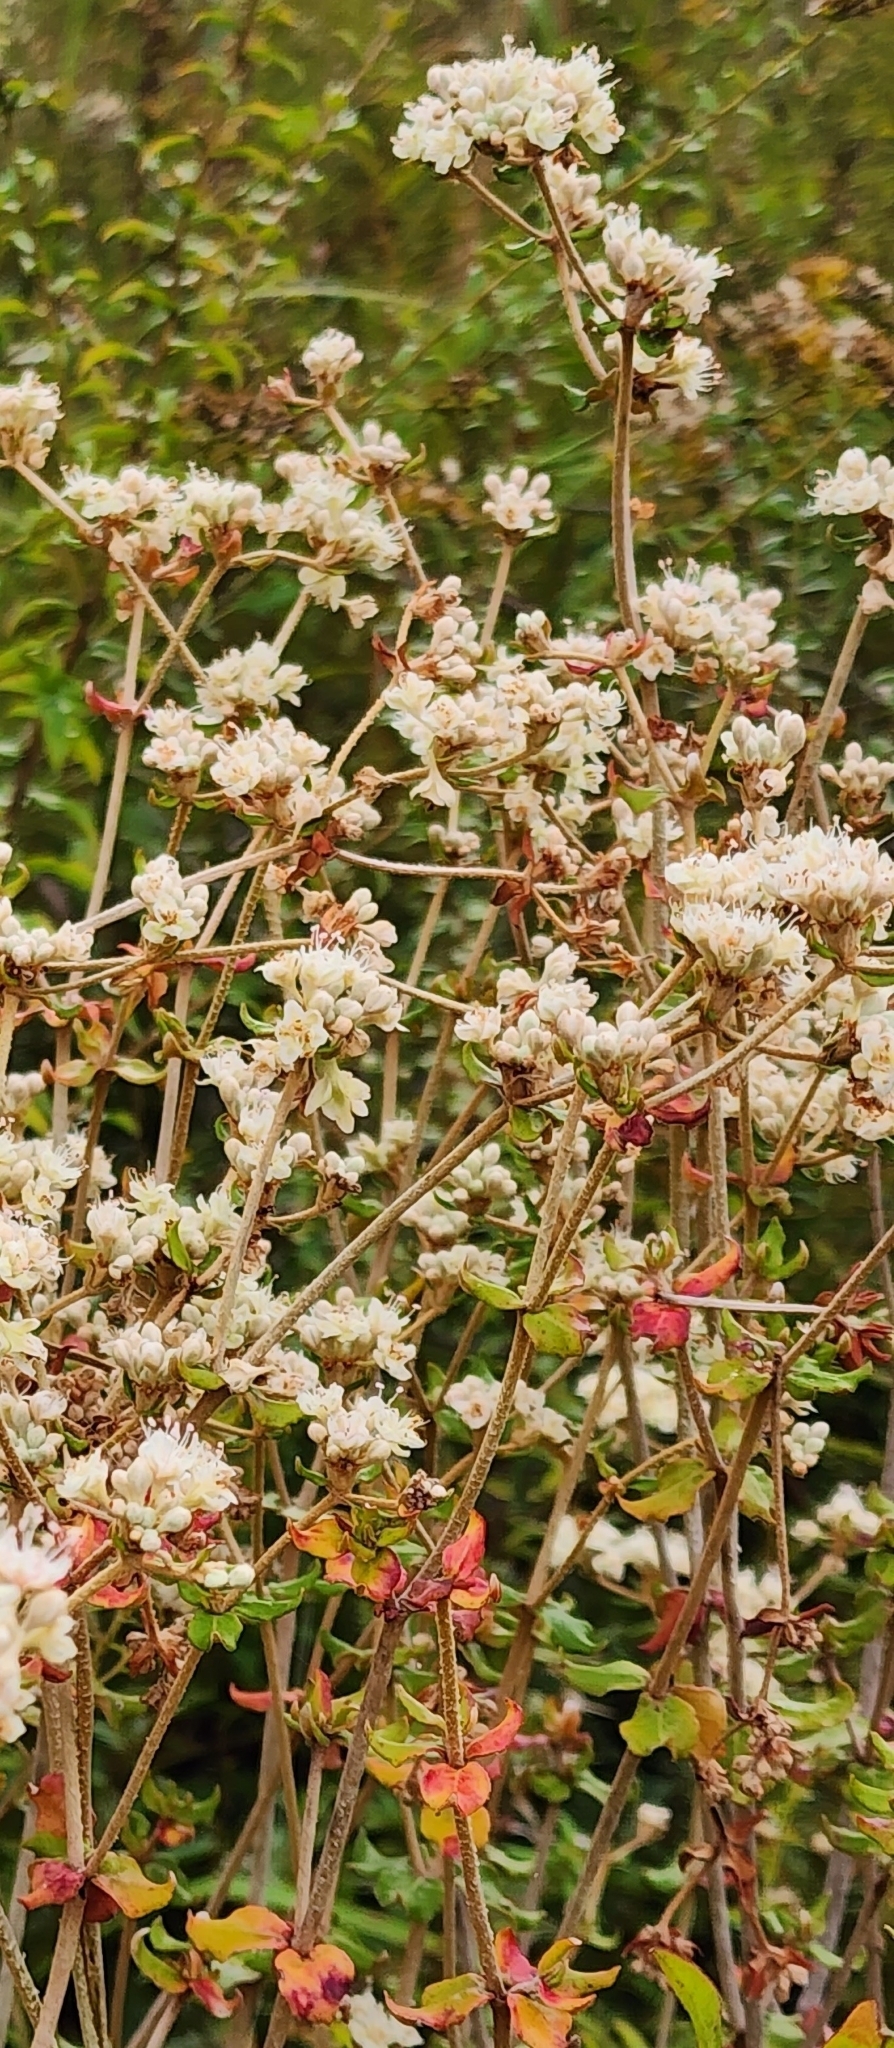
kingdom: Plantae
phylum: Tracheophyta
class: Magnoliopsida
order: Caryophyllales
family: Polygonaceae
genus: Eriogonum
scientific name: Eriogonum tomentosum
